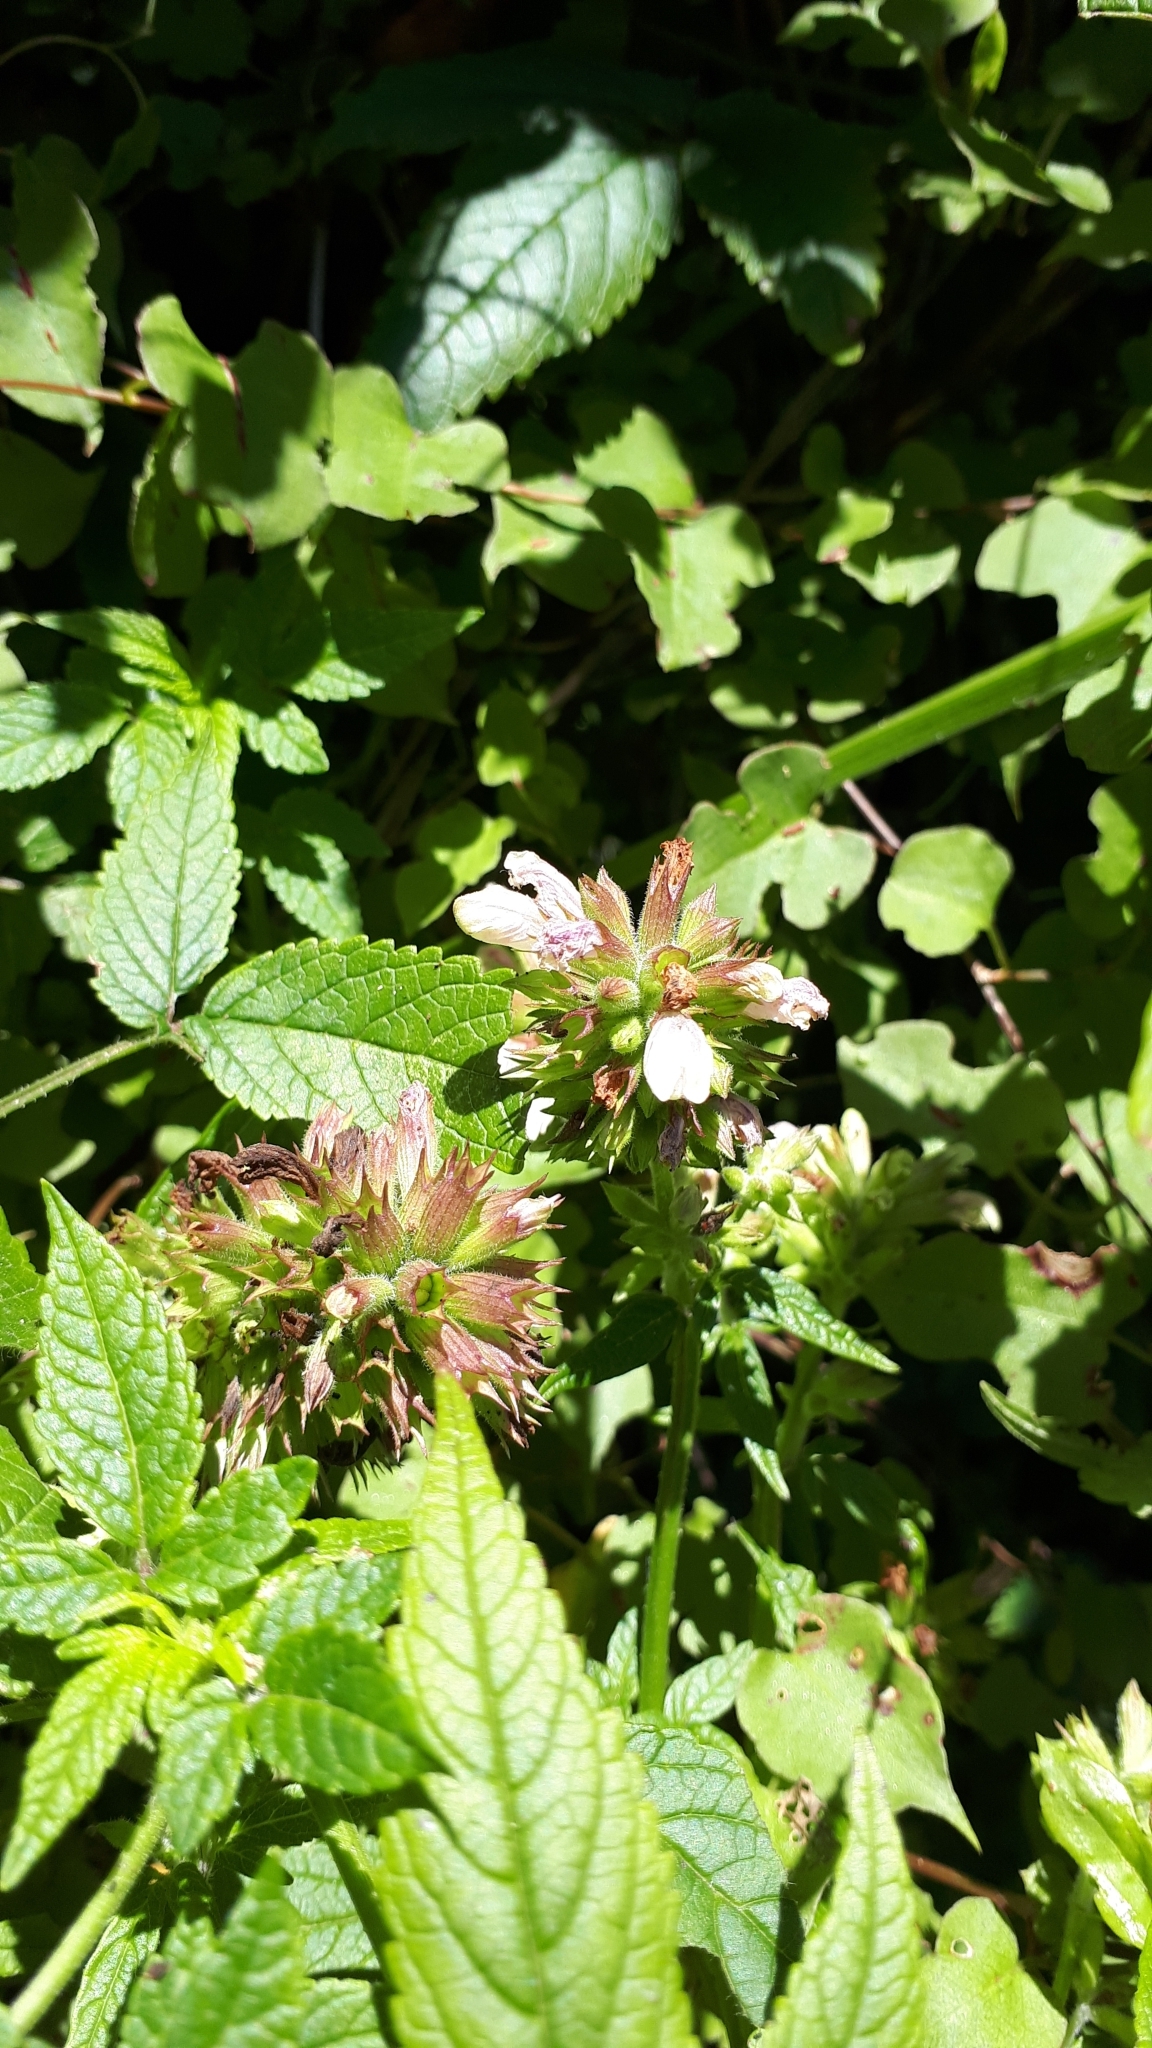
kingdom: Plantae
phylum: Tracheophyta
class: Magnoliopsida
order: Lamiales
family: Lamiaceae
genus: Cedronella
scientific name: Cedronella canariensis
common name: Canary islands balm
